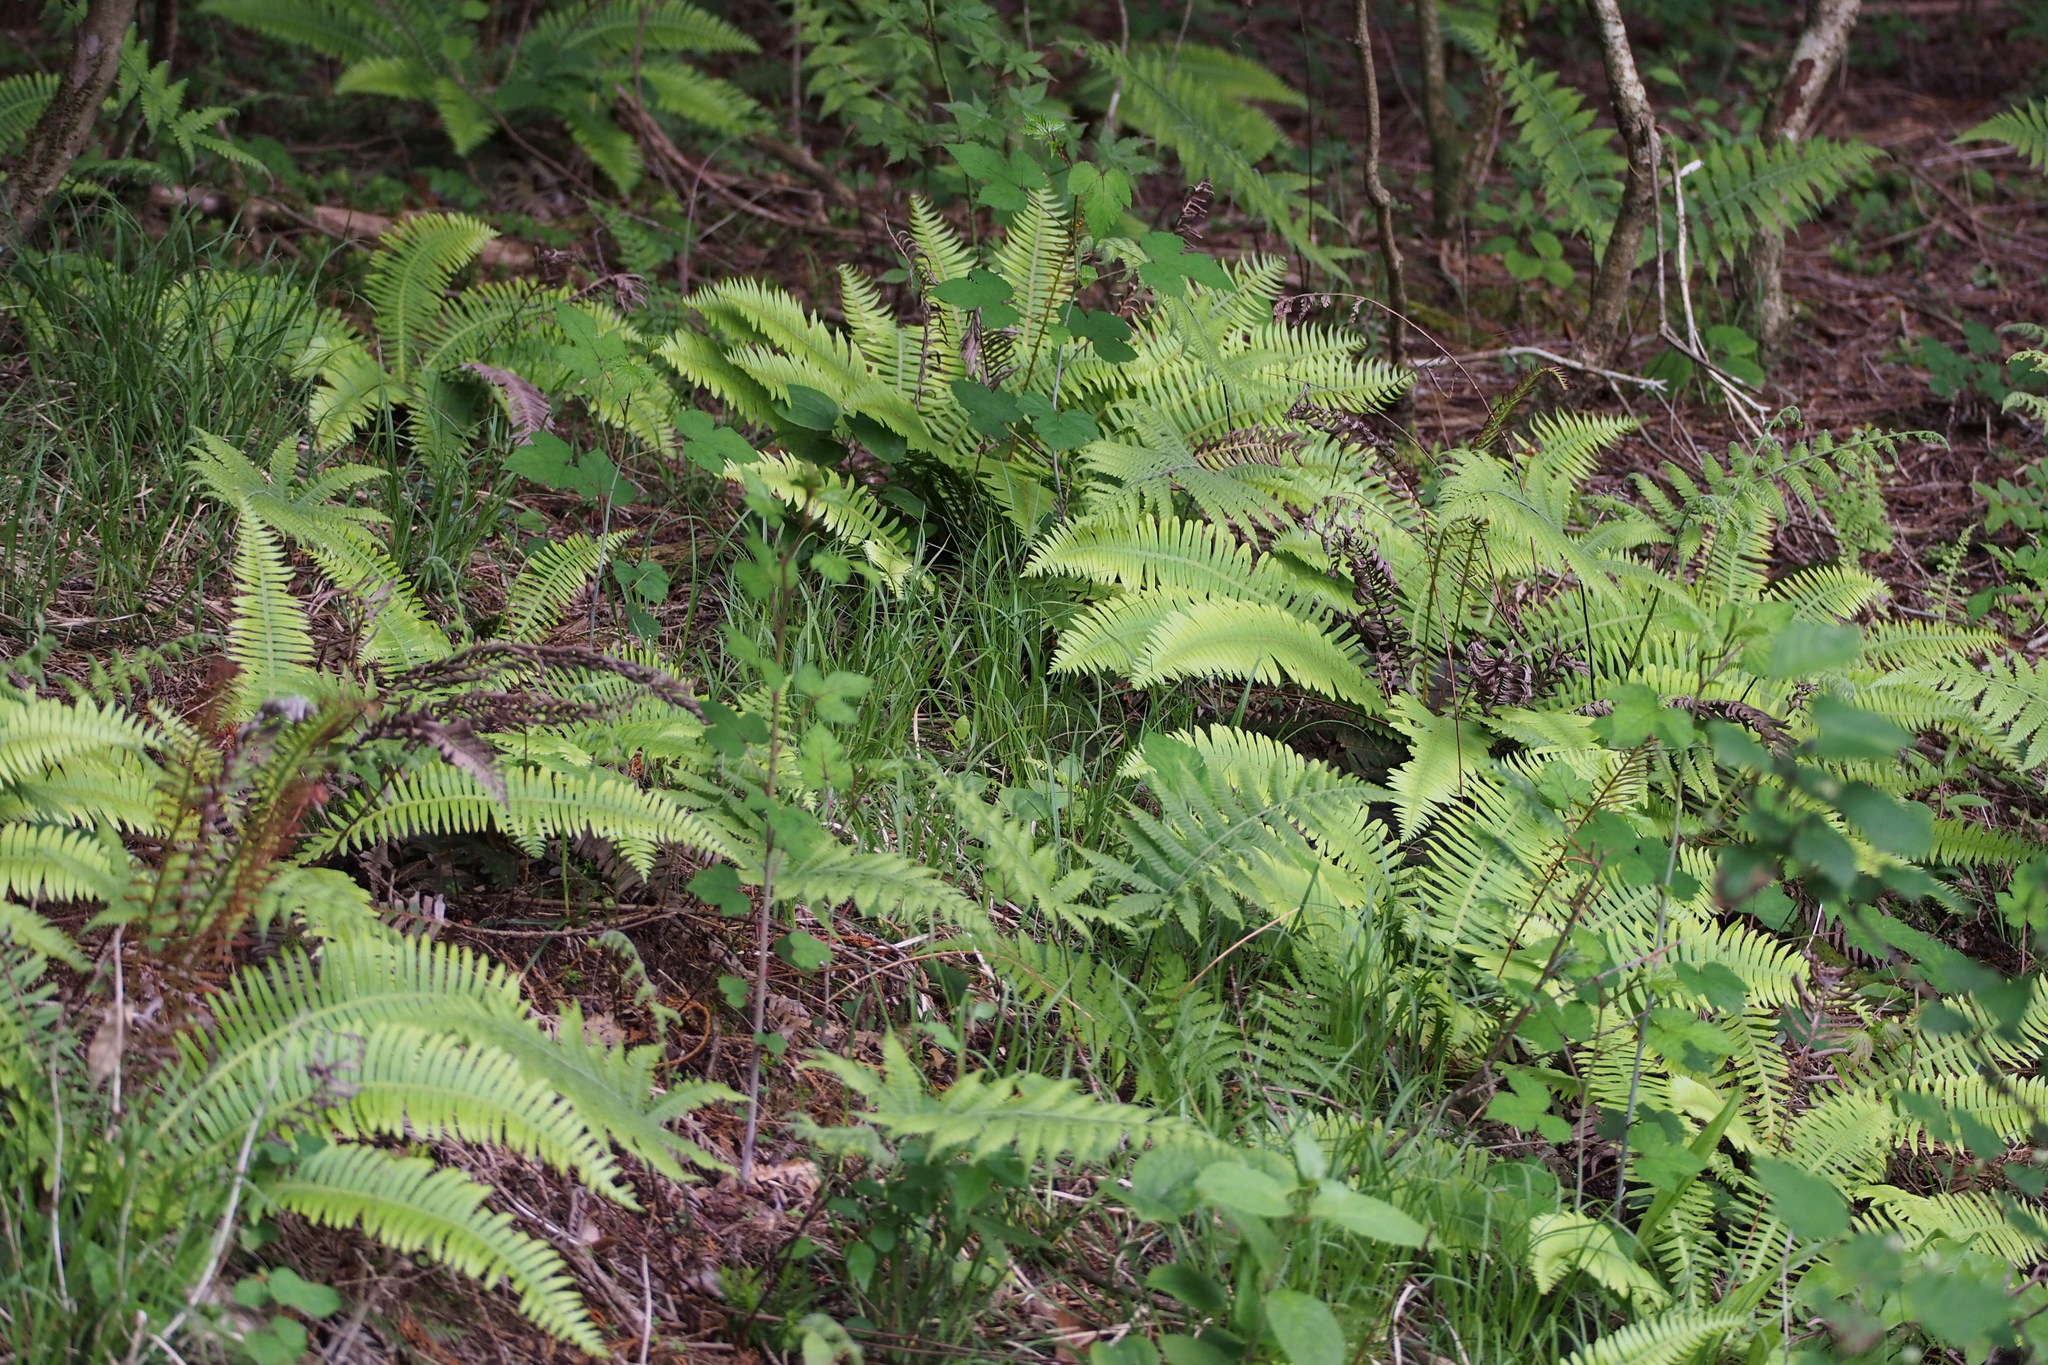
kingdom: Plantae
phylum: Tracheophyta
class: Polypodiopsida
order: Polypodiales
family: Blechnaceae
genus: Spicantopsis
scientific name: Spicantopsis niponica
